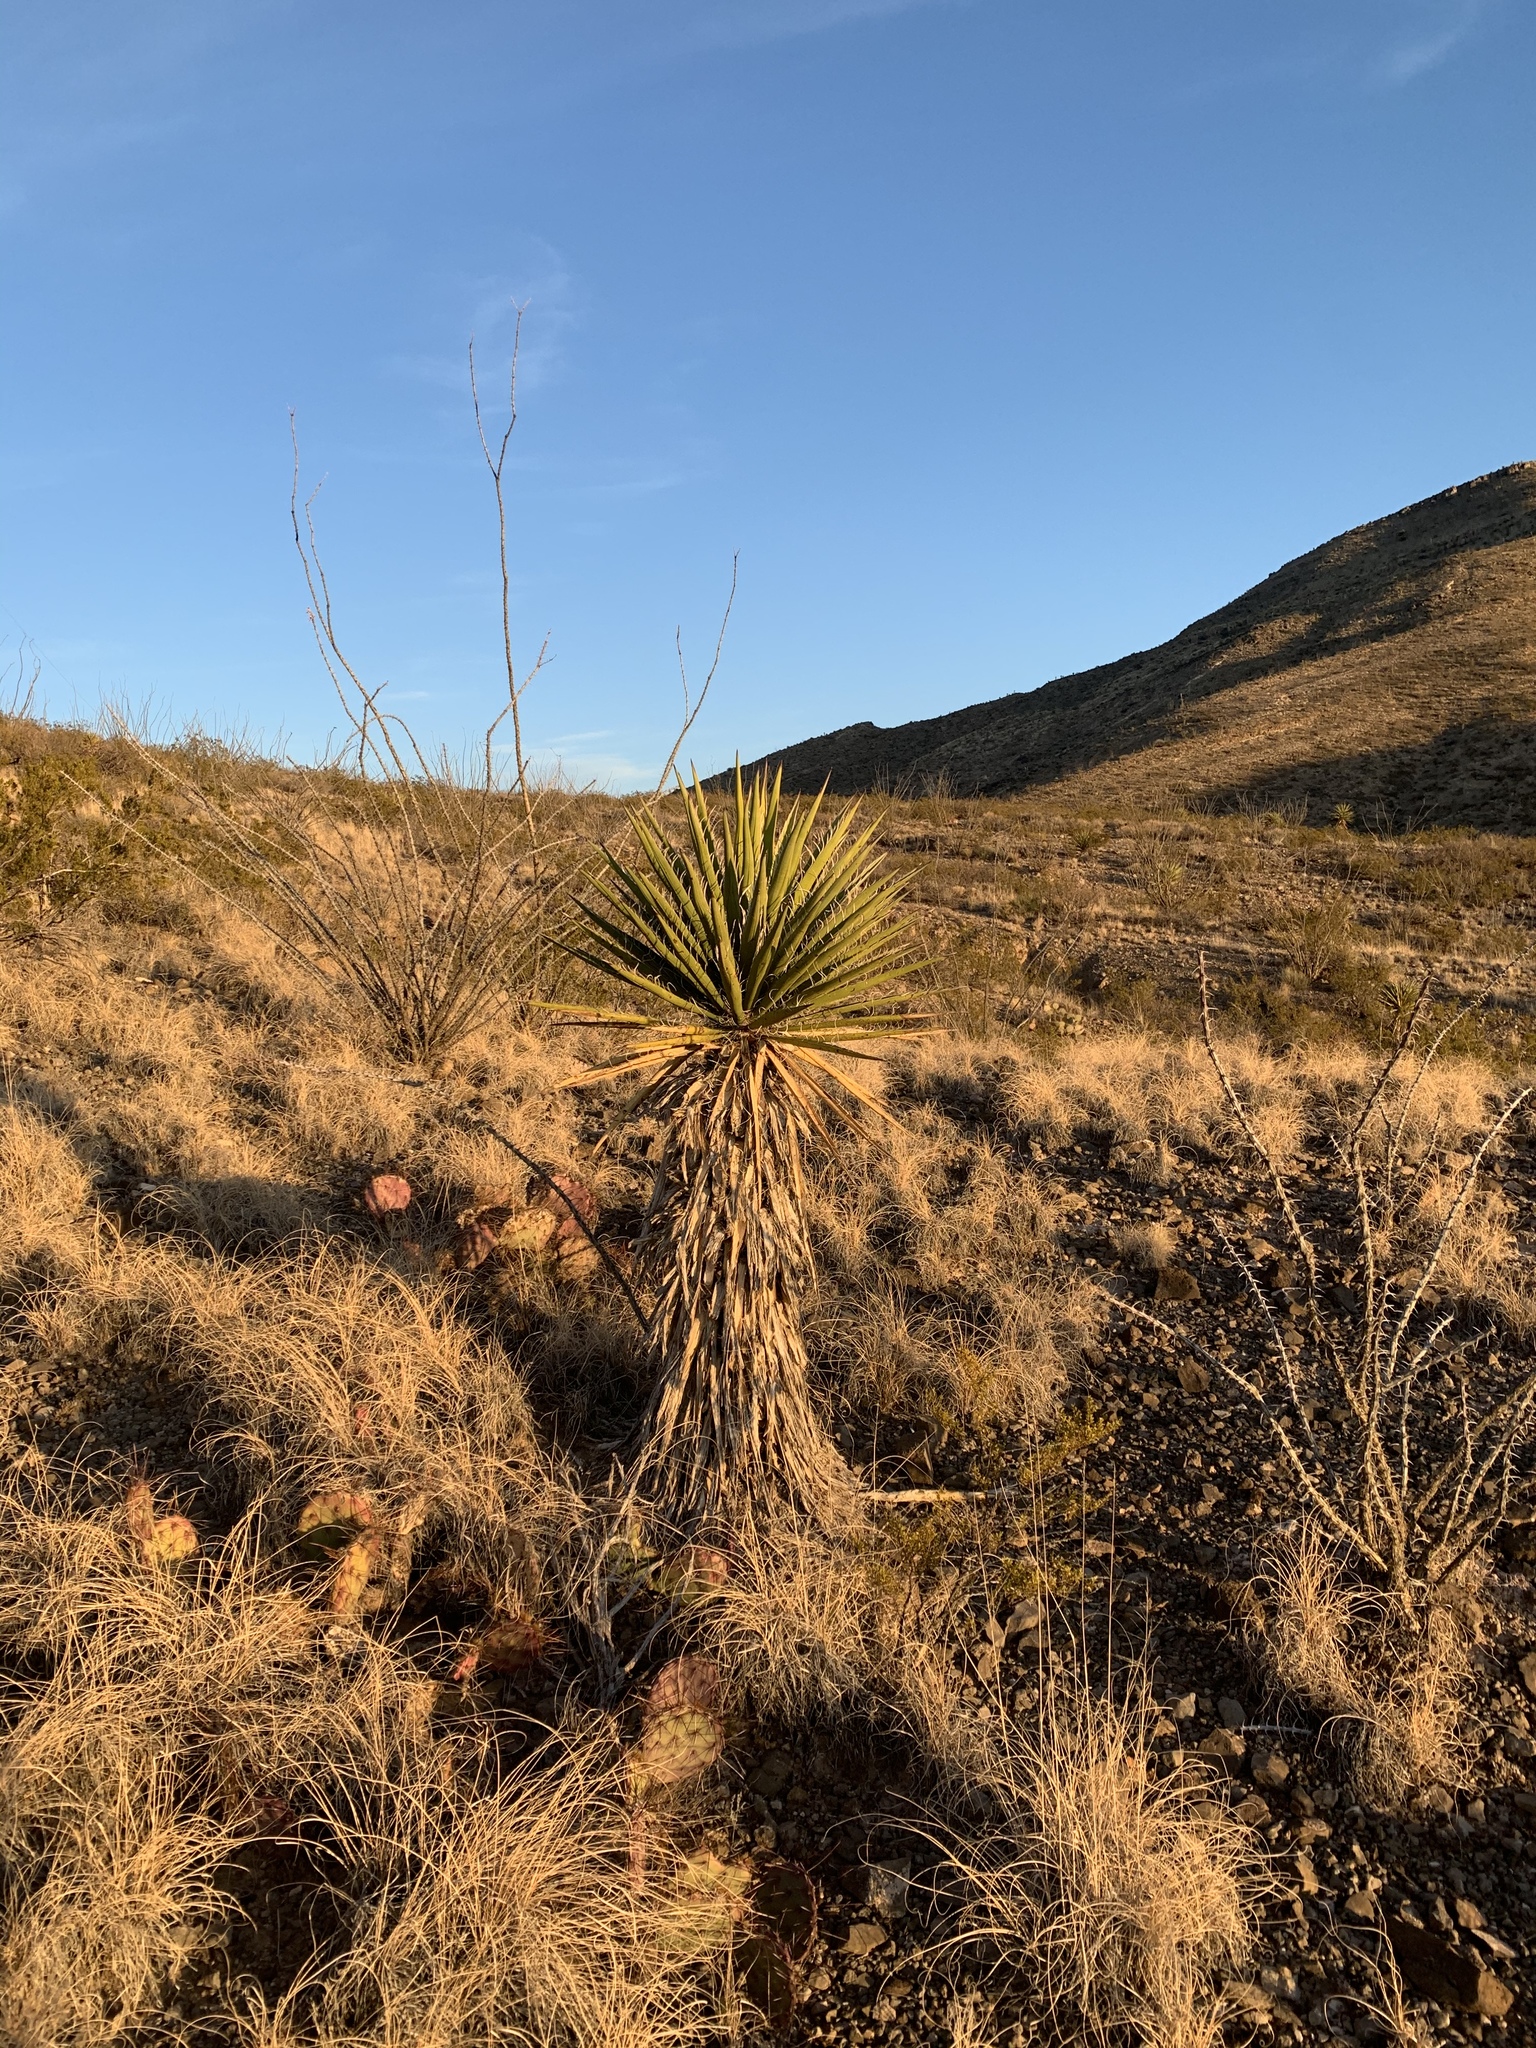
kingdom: Plantae
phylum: Tracheophyta
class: Liliopsida
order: Asparagales
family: Asparagaceae
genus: Yucca
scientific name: Yucca treculiana
